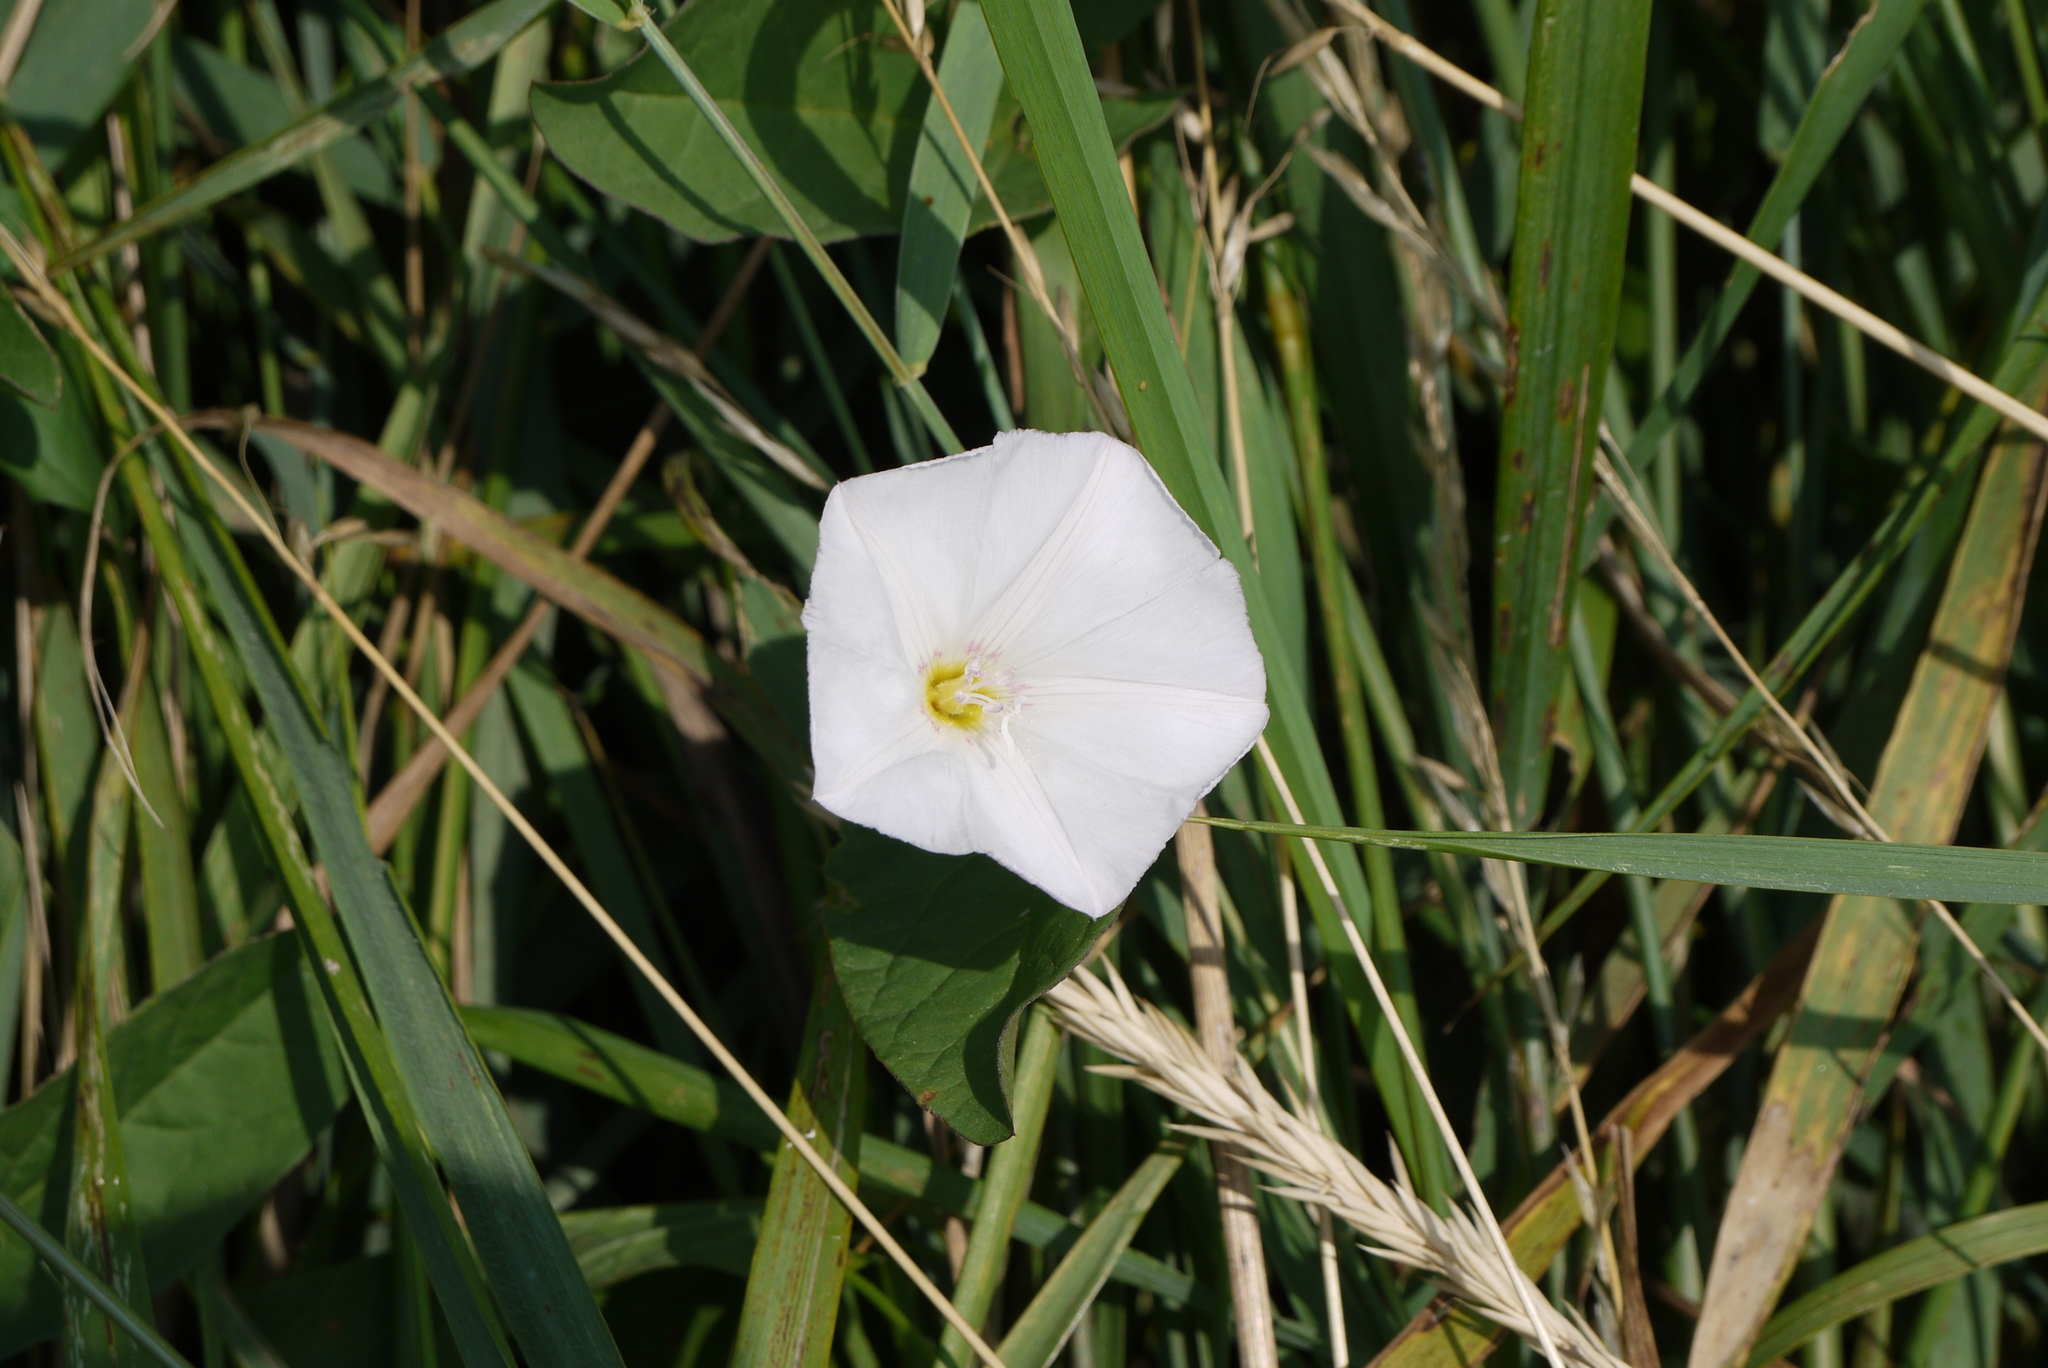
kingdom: Plantae
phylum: Tracheophyta
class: Magnoliopsida
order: Solanales
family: Convolvulaceae
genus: Convolvulus
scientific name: Convolvulus arvensis
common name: Field bindweed
